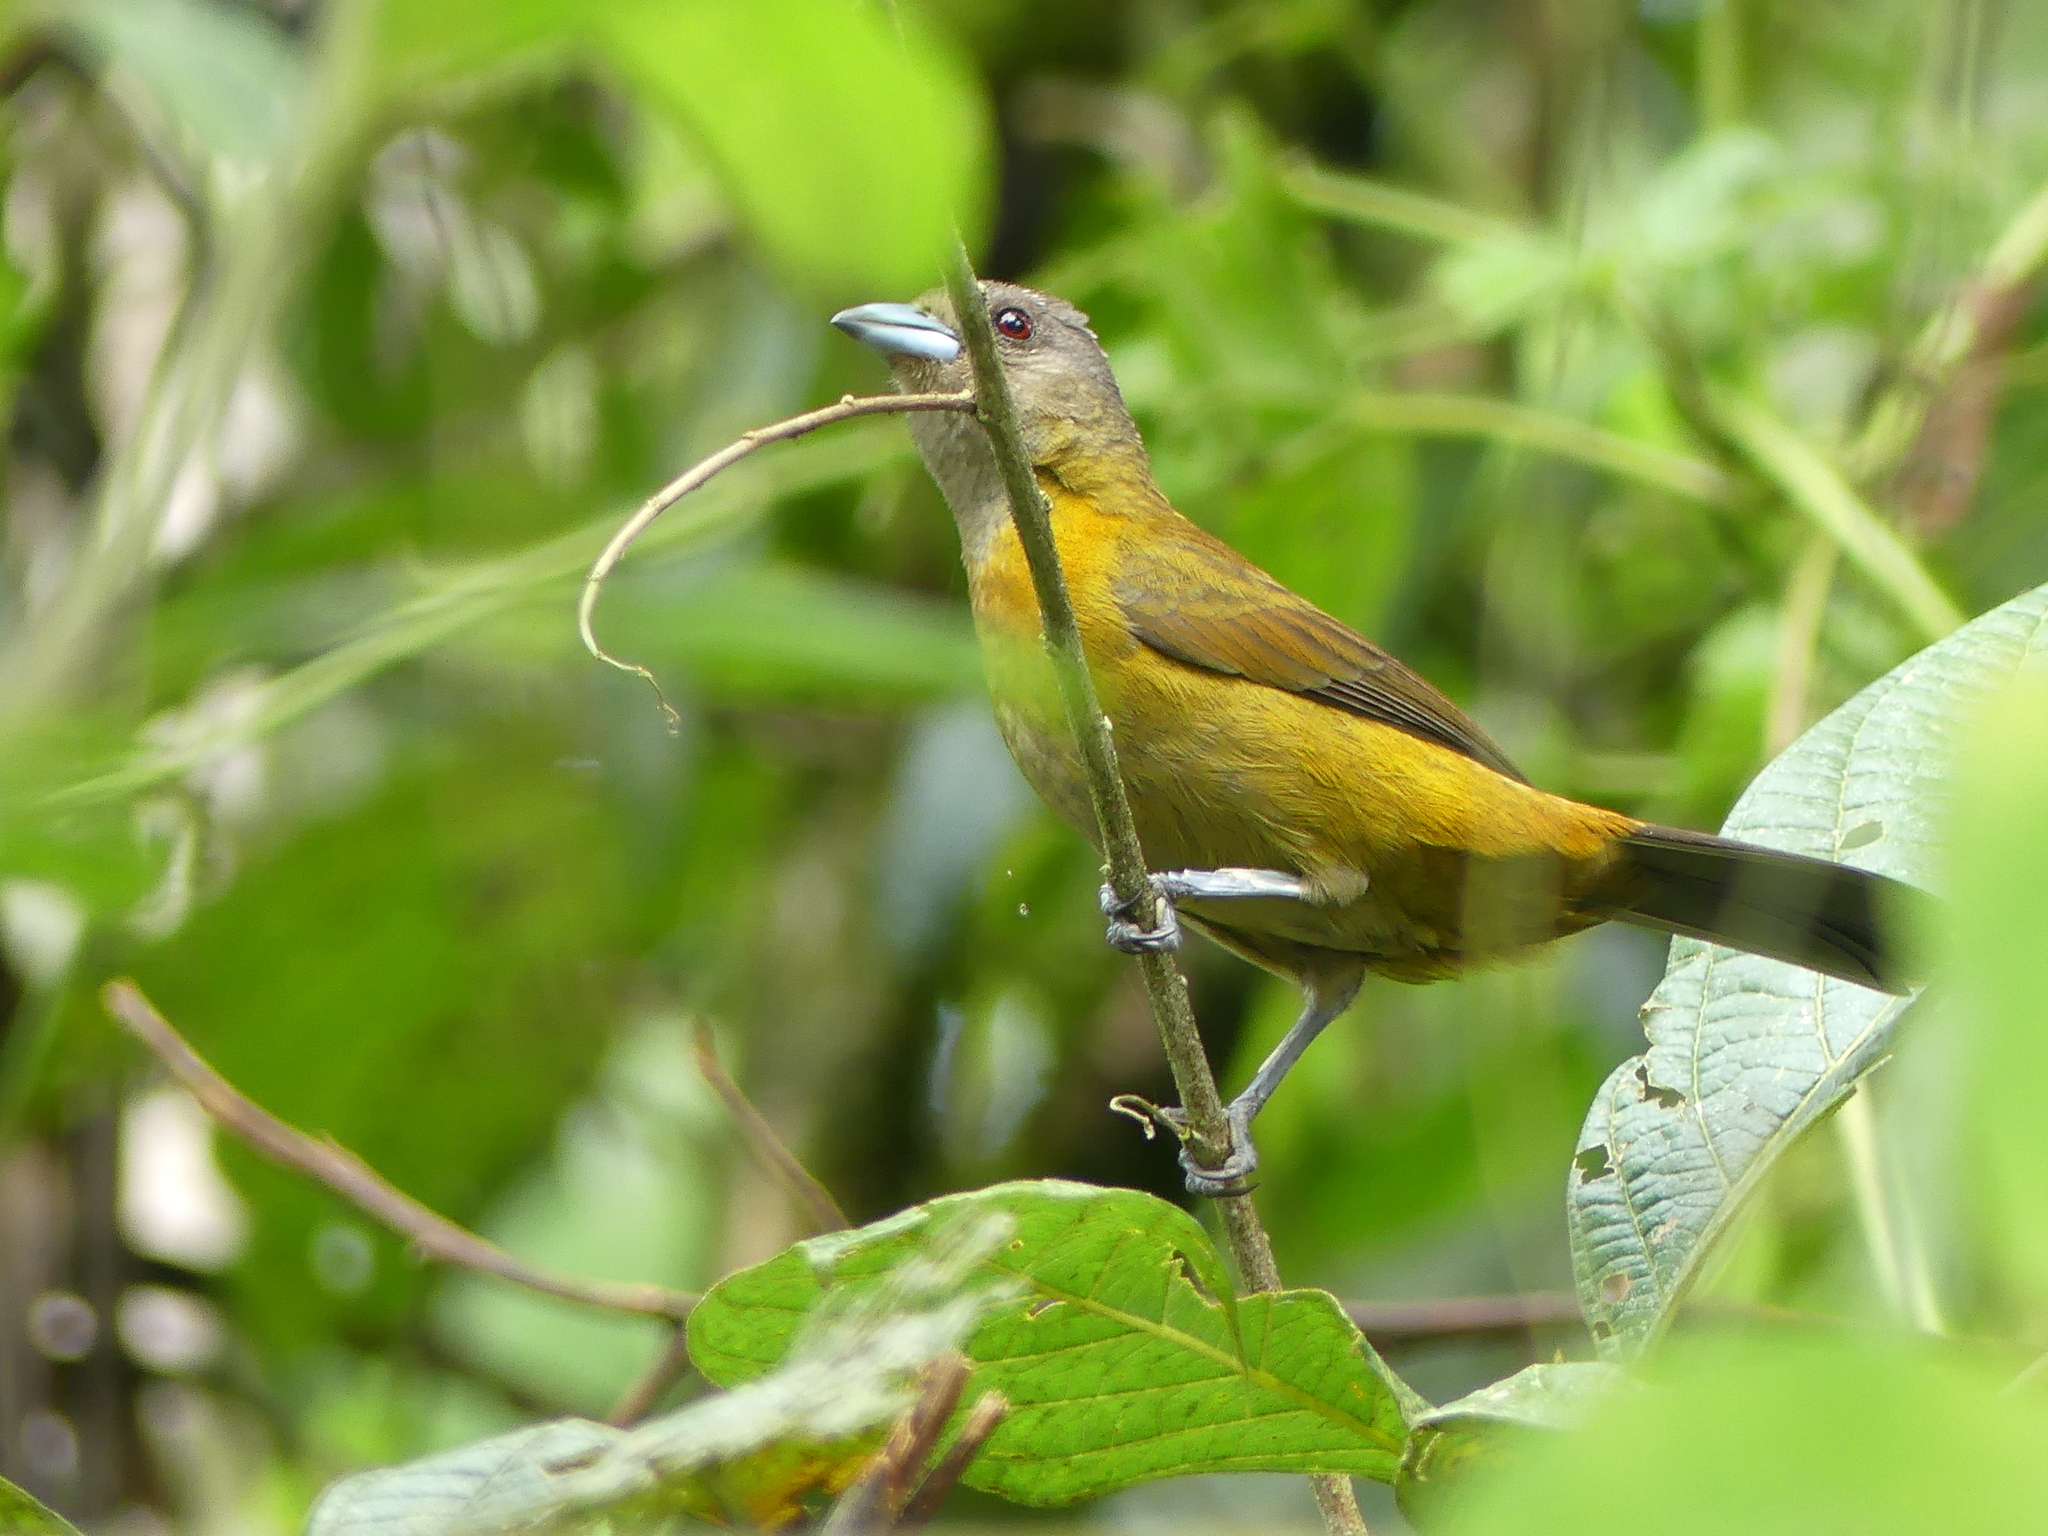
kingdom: Animalia
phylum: Chordata
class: Aves
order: Passeriformes
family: Thraupidae
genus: Ramphocelus
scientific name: Ramphocelus passerinii
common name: Passerini's tanager
